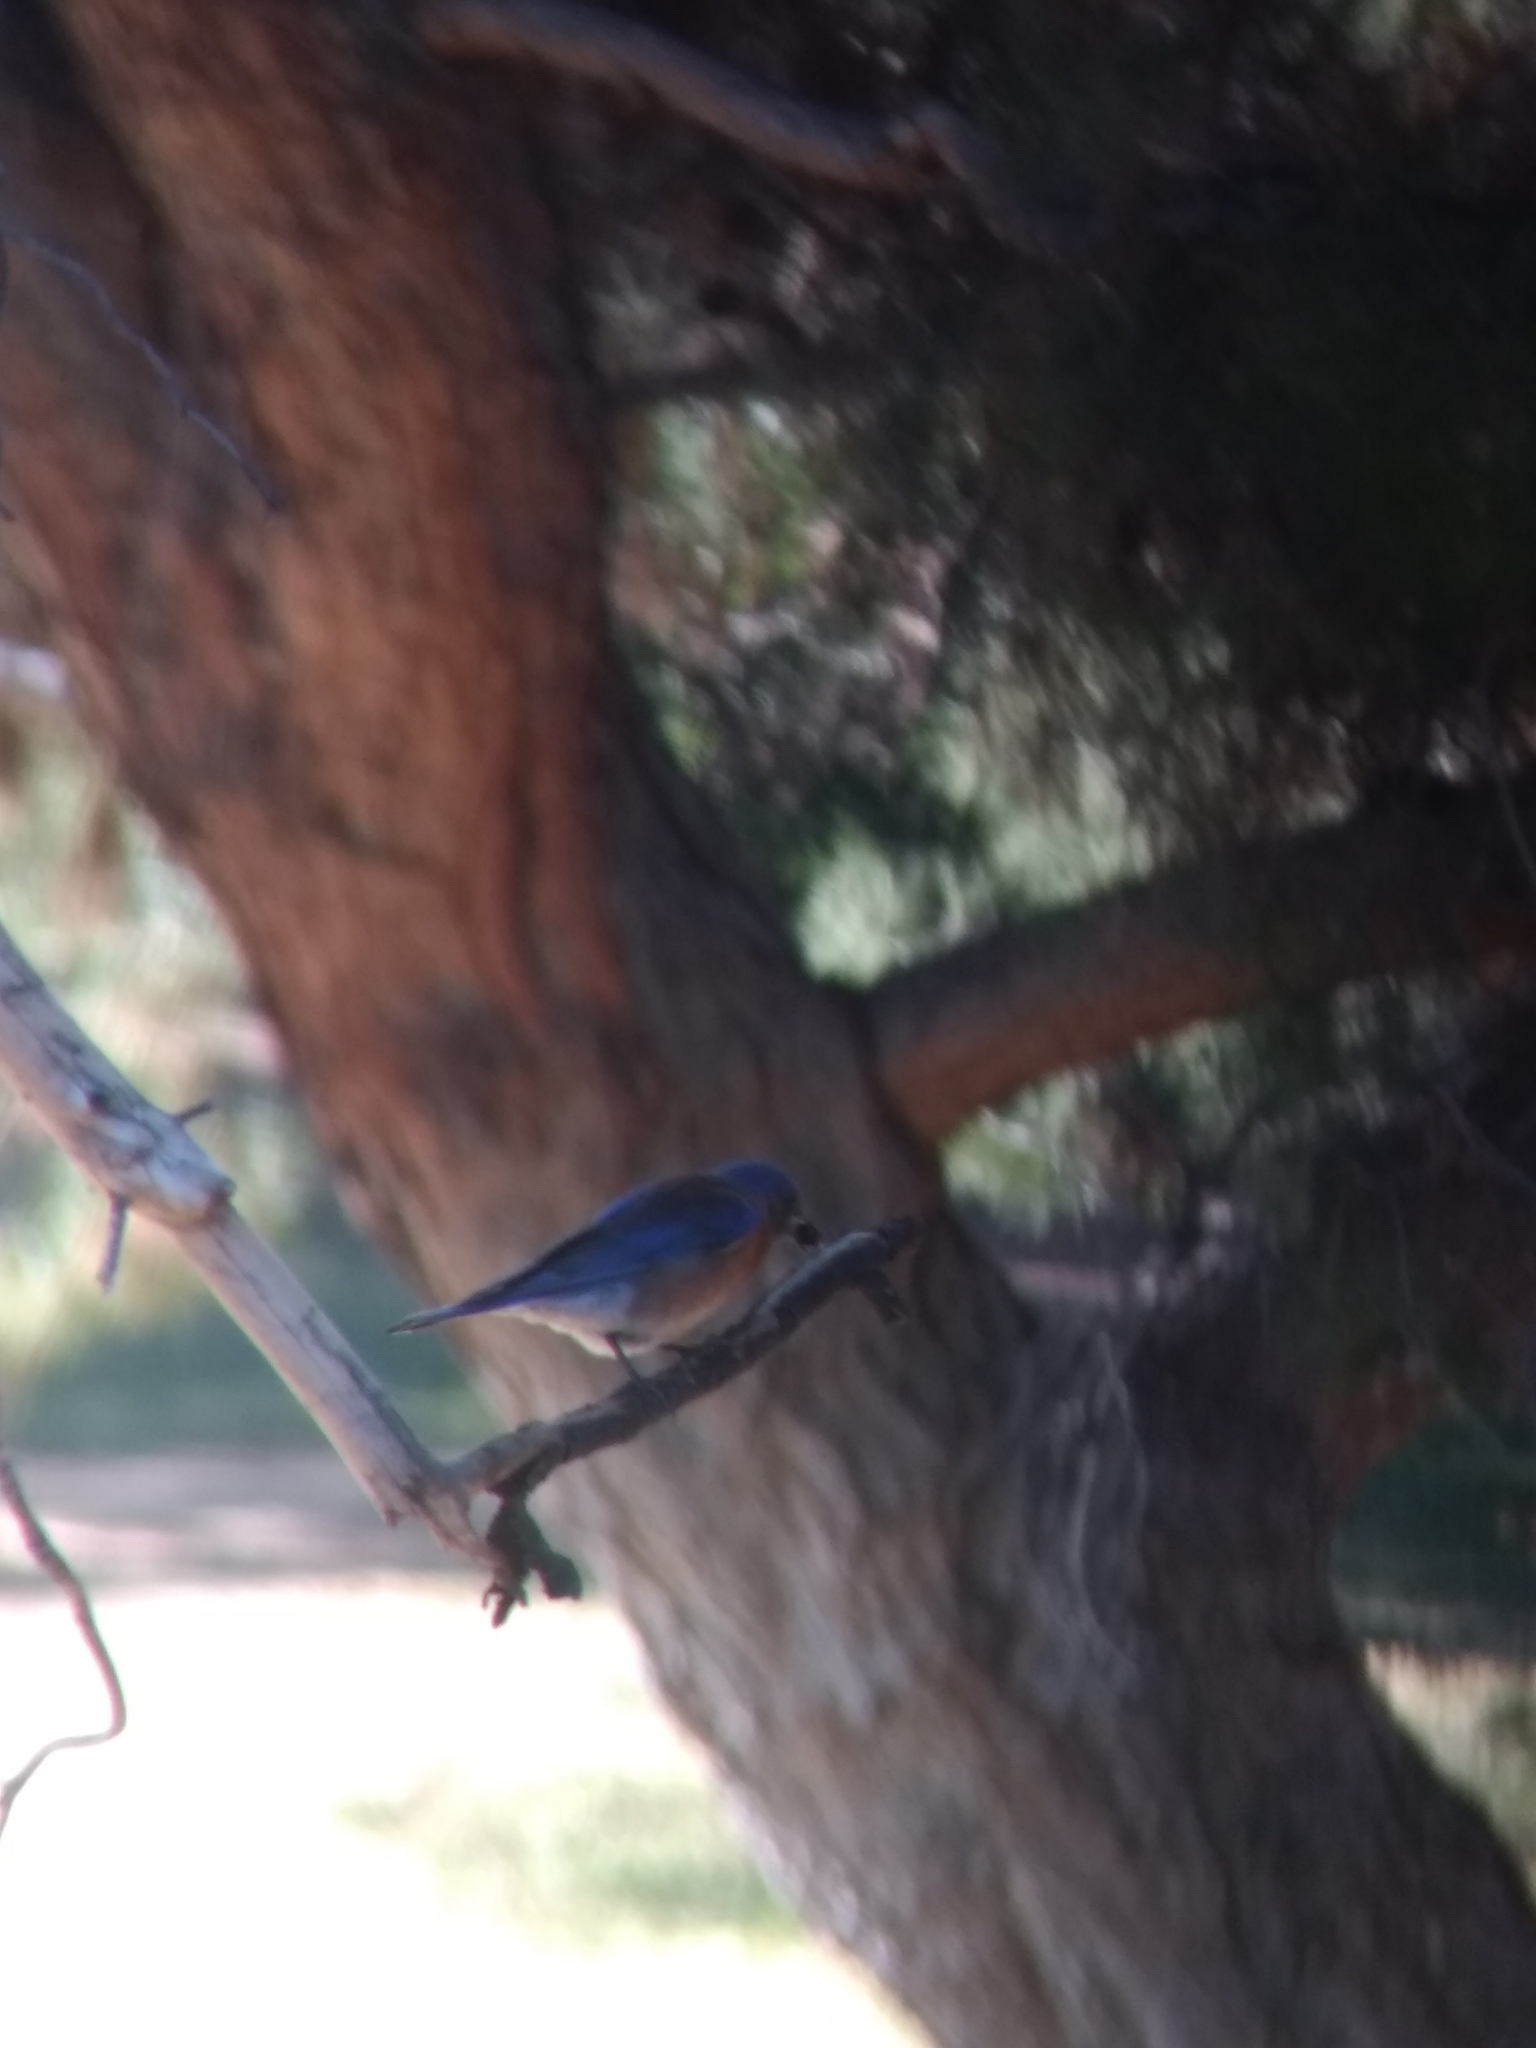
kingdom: Animalia
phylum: Chordata
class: Aves
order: Passeriformes
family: Turdidae
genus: Sialia
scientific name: Sialia mexicana
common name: Western bluebird
